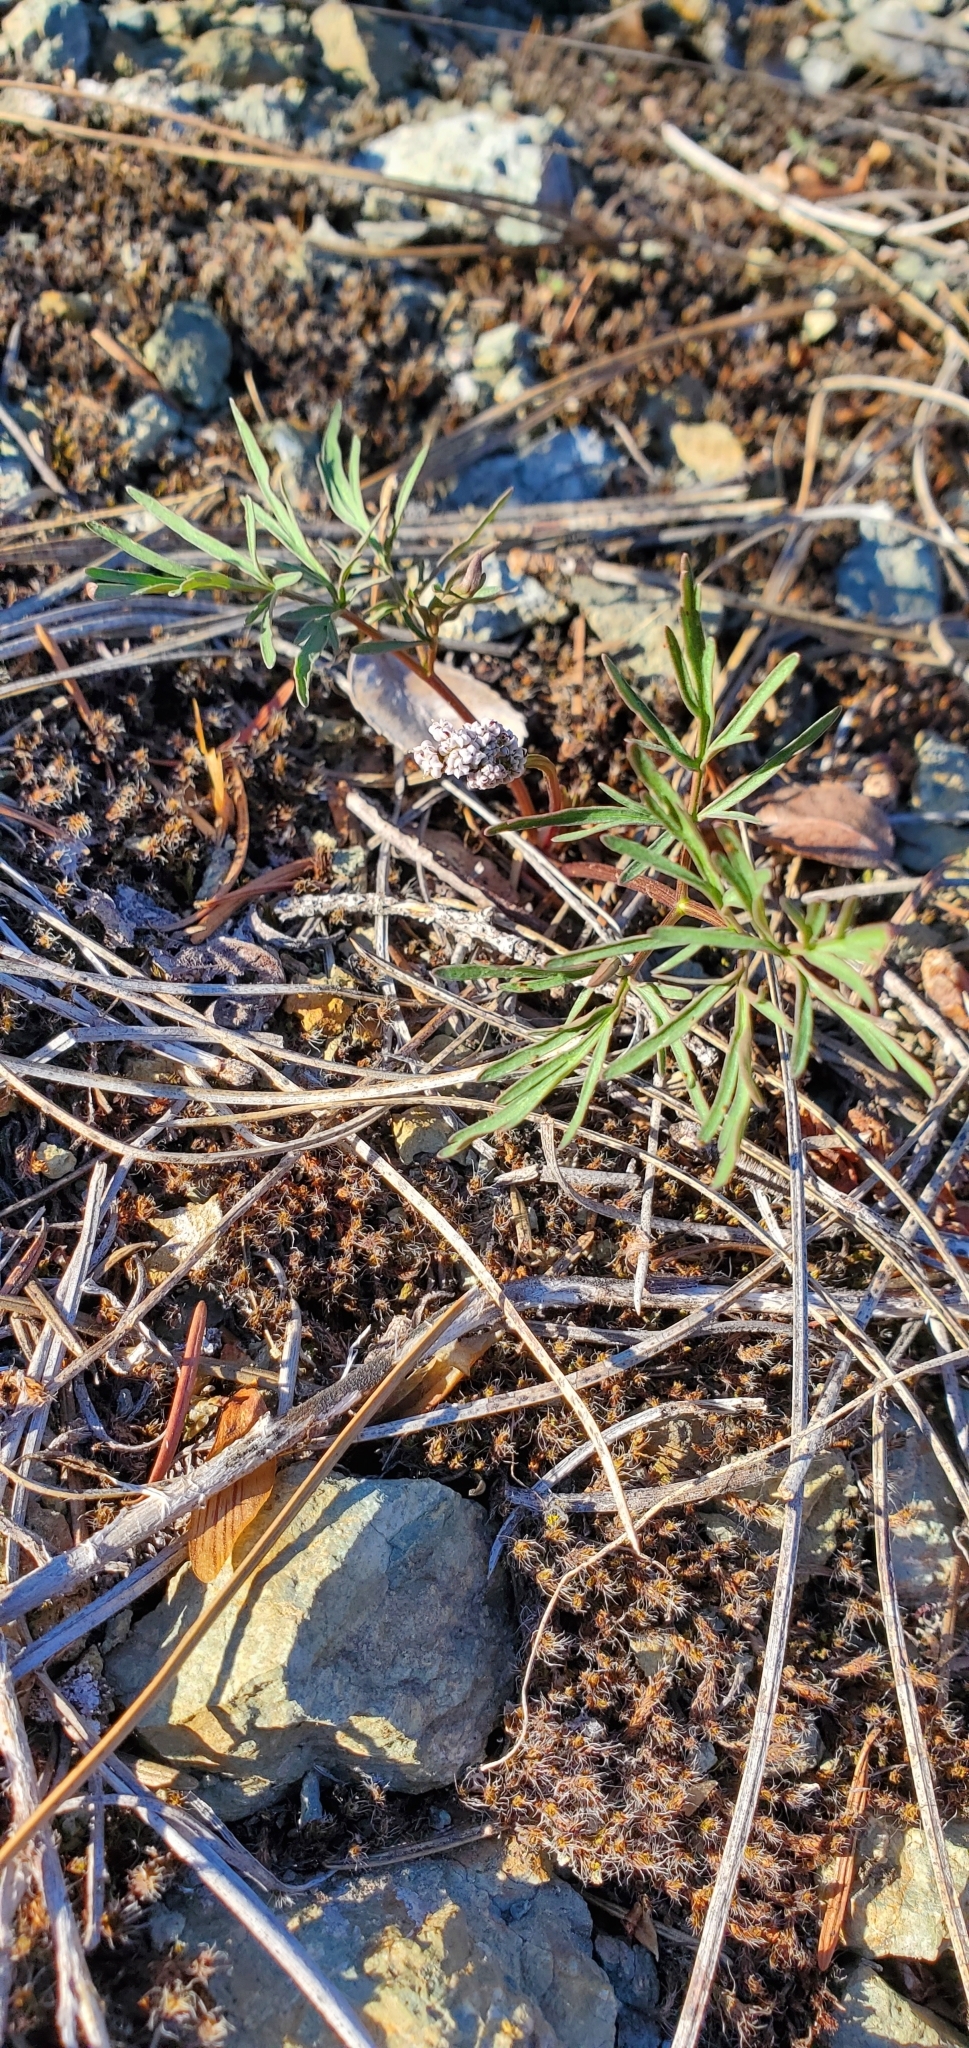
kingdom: Plantae
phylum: Tracheophyta
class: Magnoliopsida
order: Apiales
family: Apiaceae
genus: Lomatium
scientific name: Lomatium geyeri
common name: Geyer's biscuitroot
